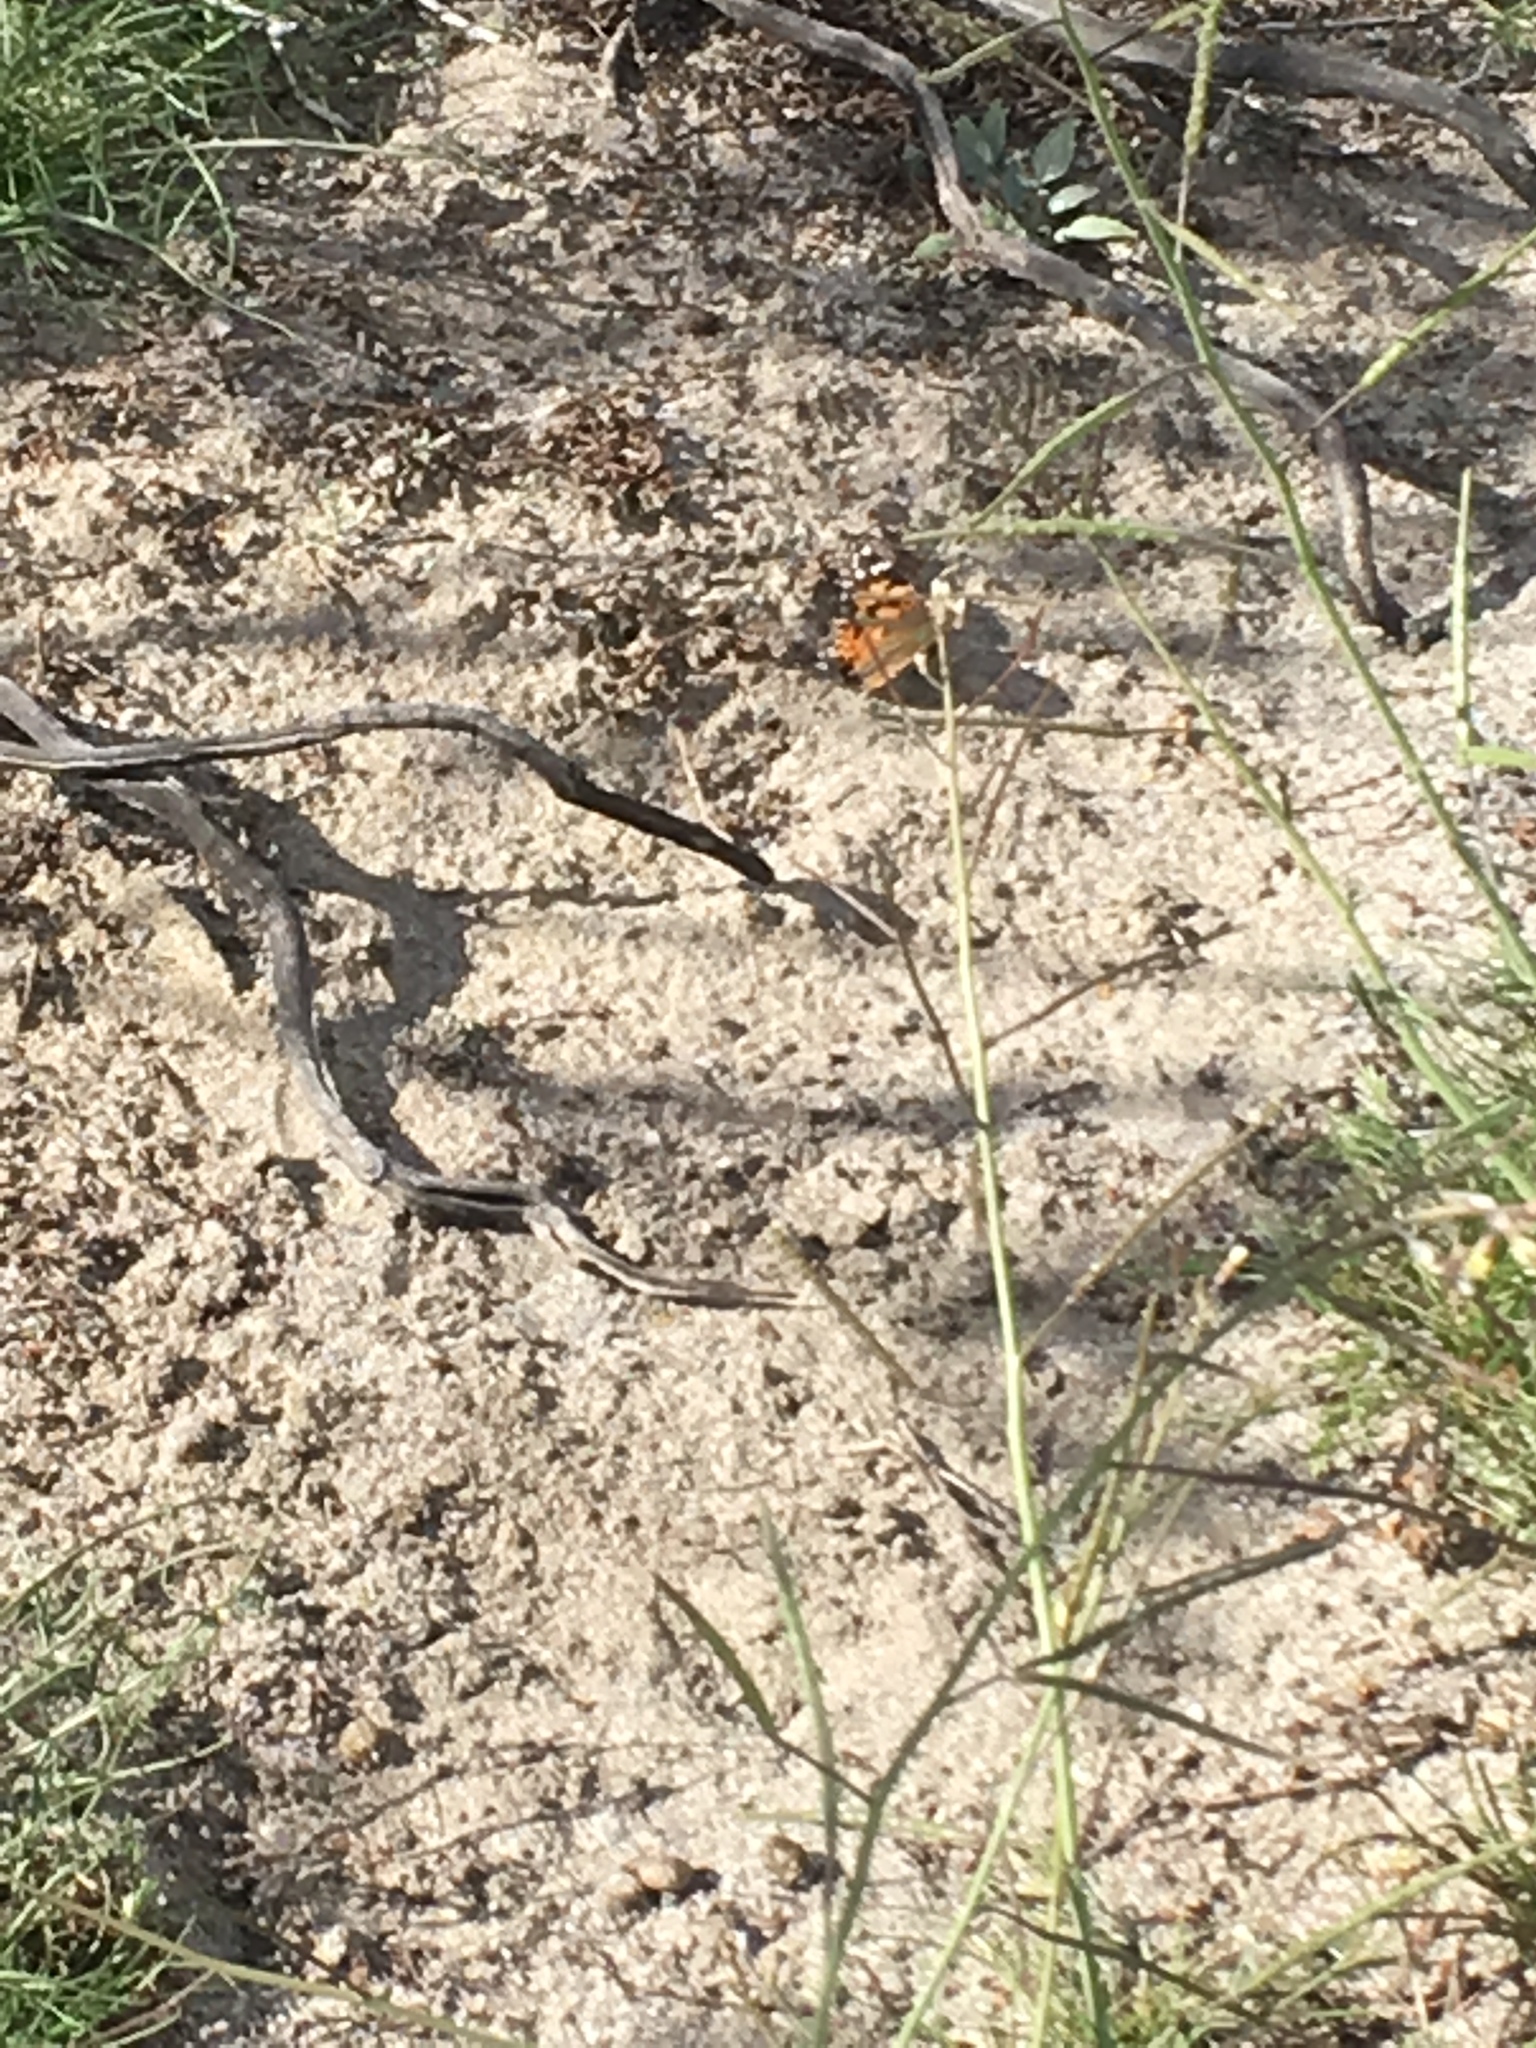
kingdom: Animalia
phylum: Arthropoda
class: Insecta
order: Lepidoptera
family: Nymphalidae
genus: Vanessa
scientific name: Vanessa cardui
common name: Painted lady
